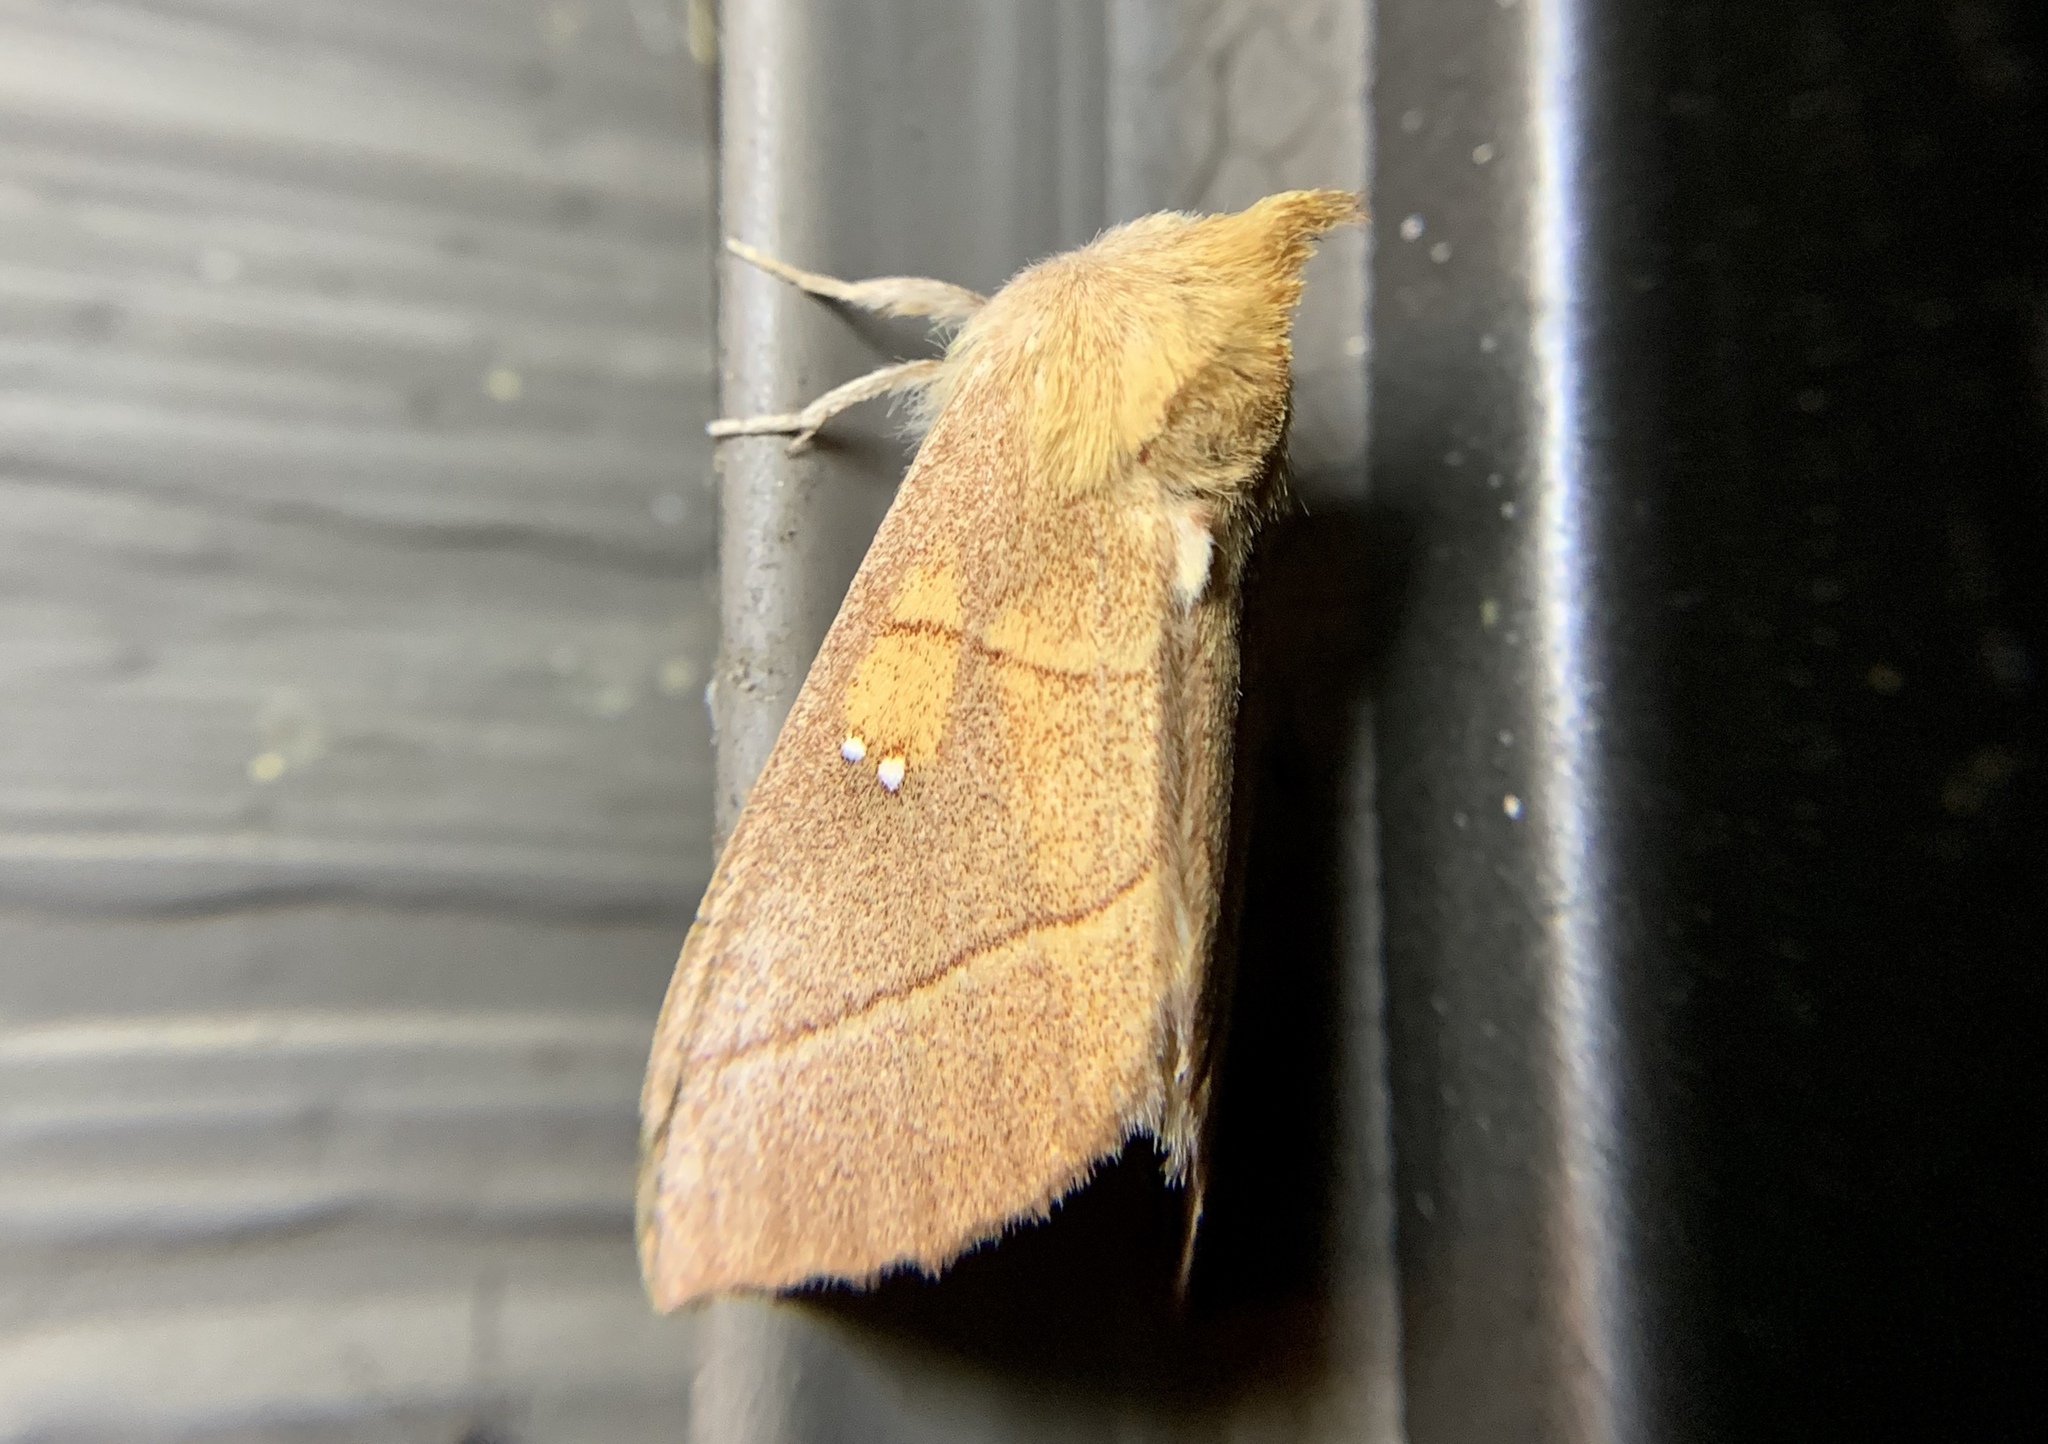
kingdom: Animalia
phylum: Arthropoda
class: Insecta
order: Lepidoptera
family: Notodontidae
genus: Nadata
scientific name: Nadata gibbosa
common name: White-dotted prominent
